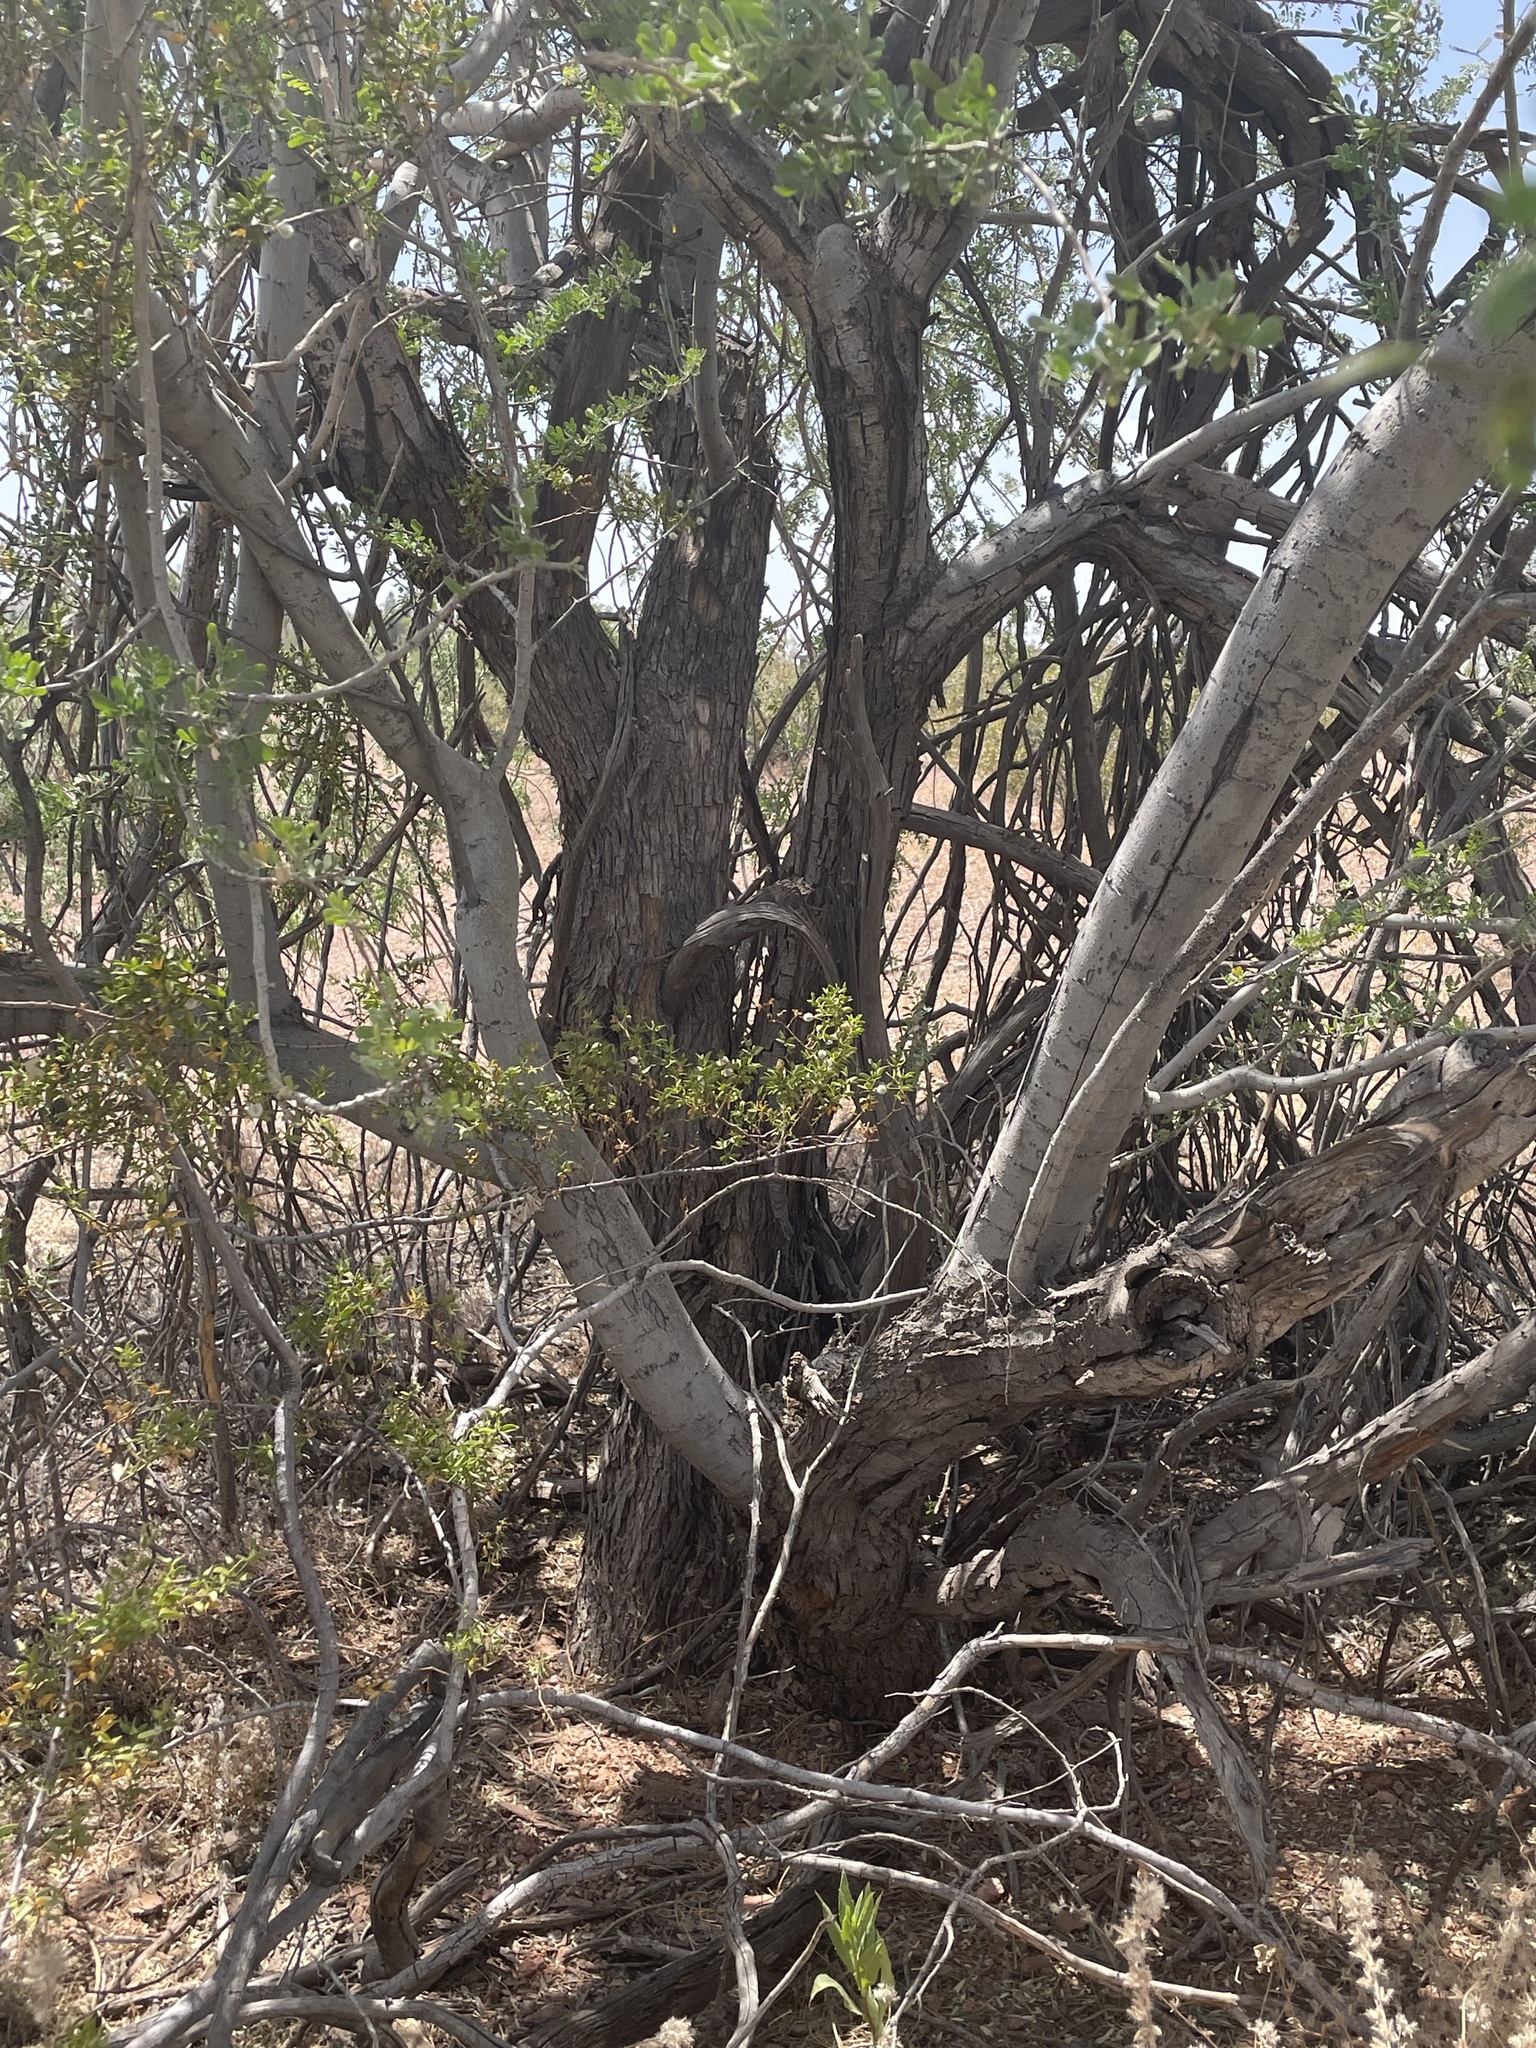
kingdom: Plantae
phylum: Tracheophyta
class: Magnoliopsida
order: Fabales
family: Fabaceae
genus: Olneya
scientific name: Olneya tesota
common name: Desert ironwood
